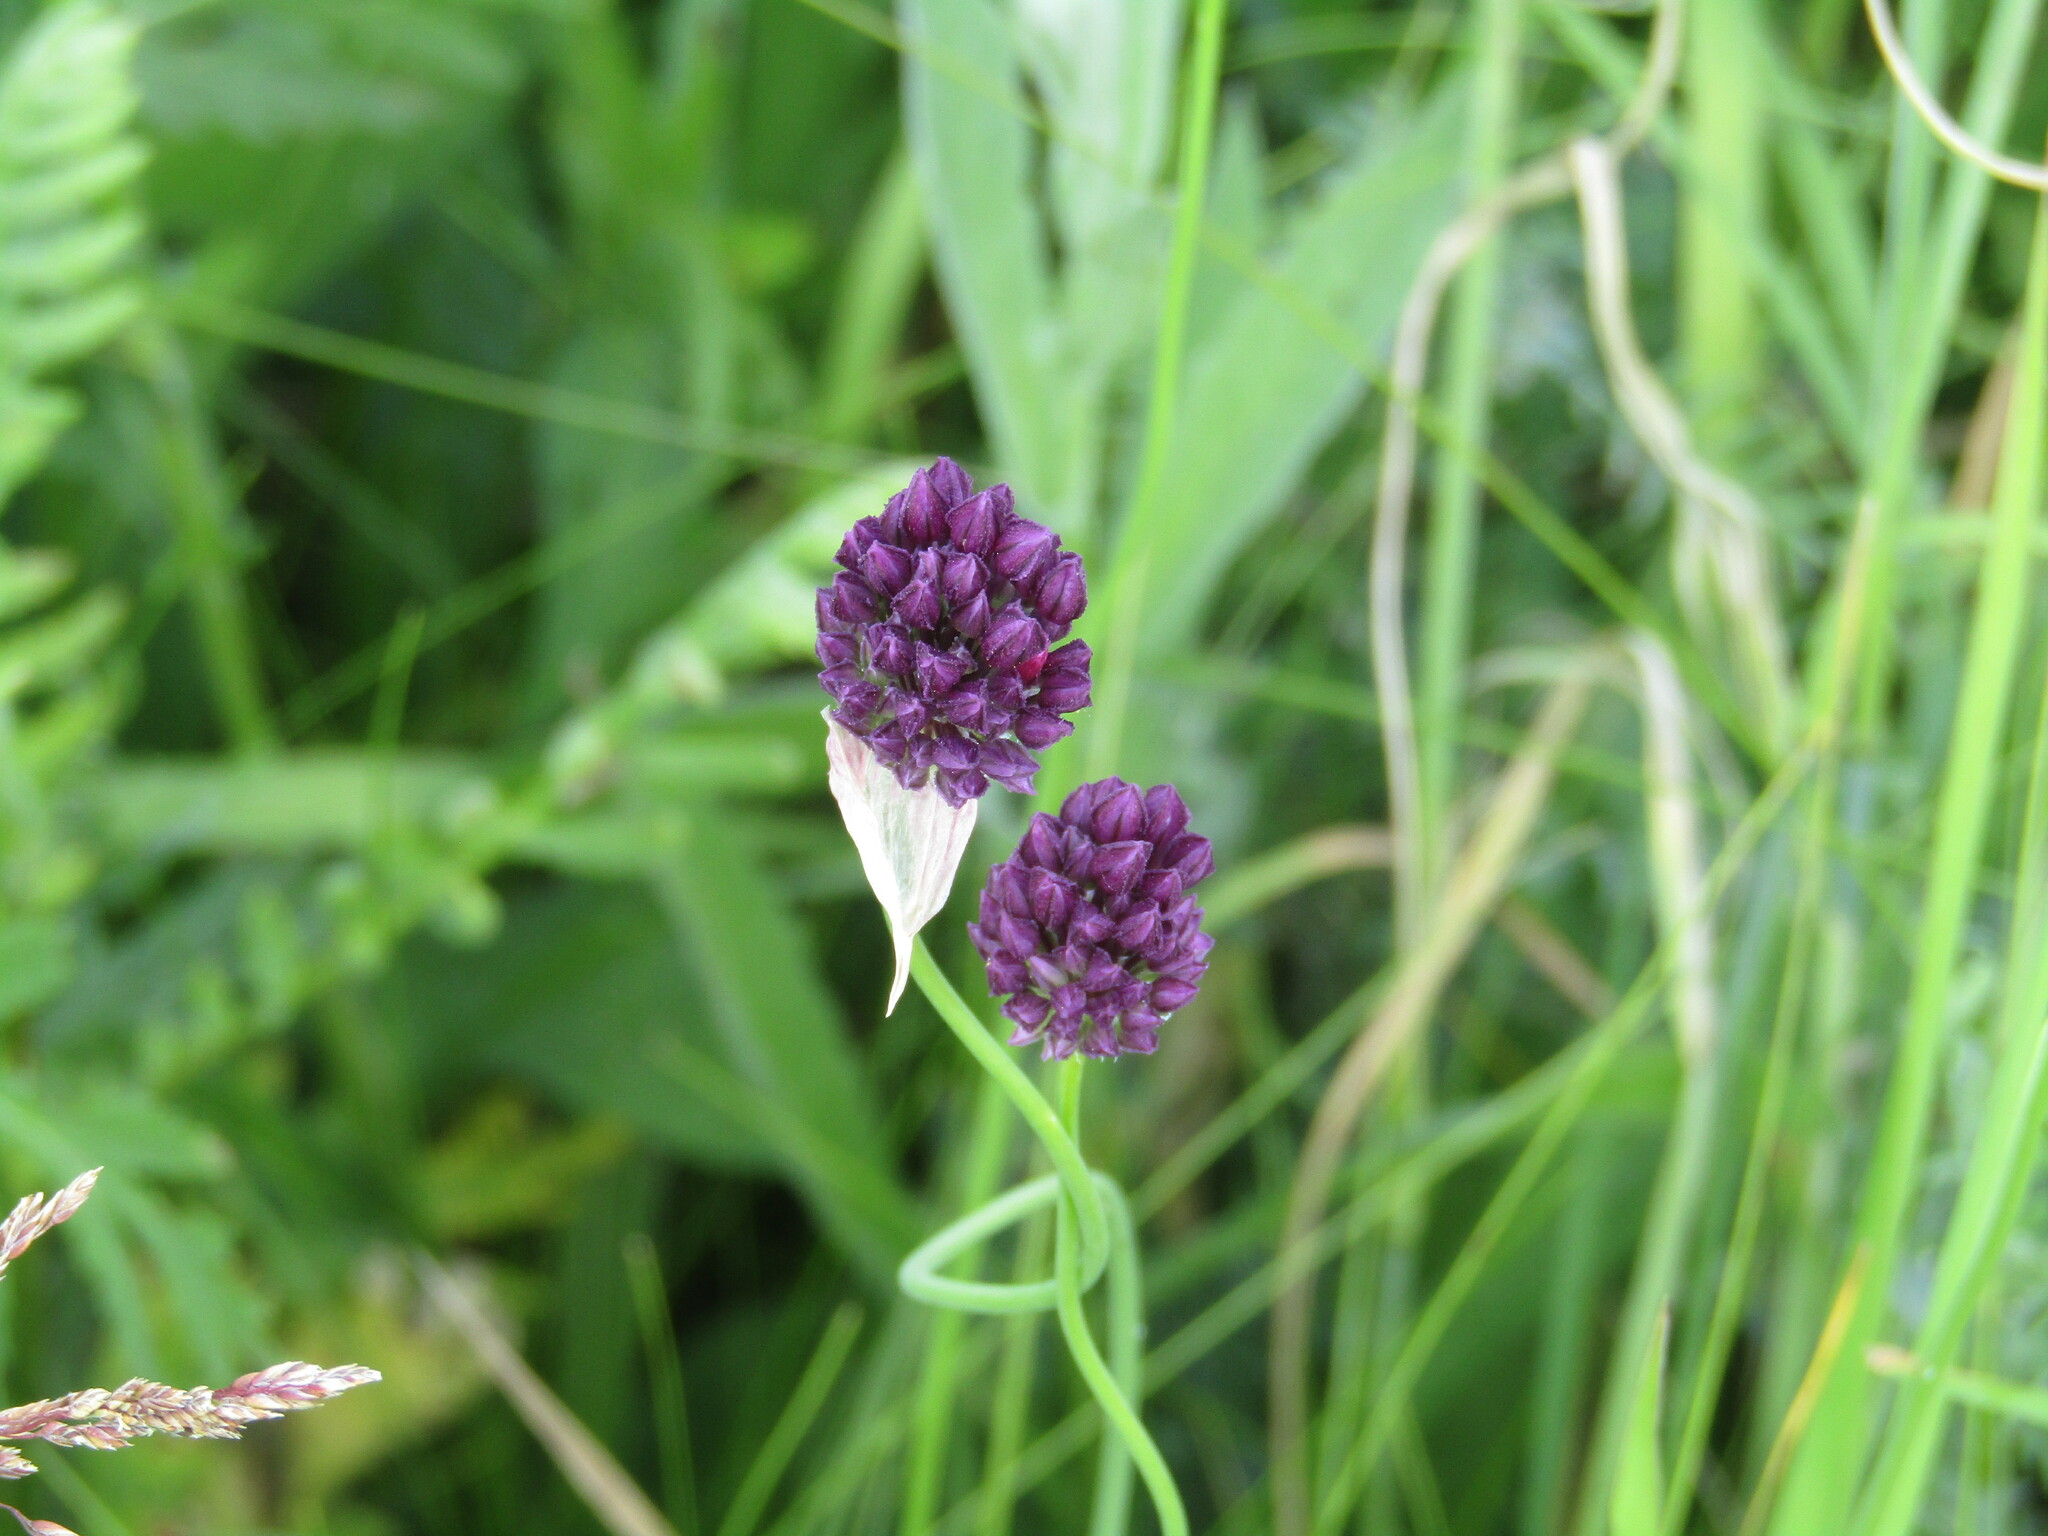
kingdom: Plantae
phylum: Tracheophyta
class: Liliopsida
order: Asparagales
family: Amaryllidaceae
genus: Allium
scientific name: Allium rotundum
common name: Sand leek
